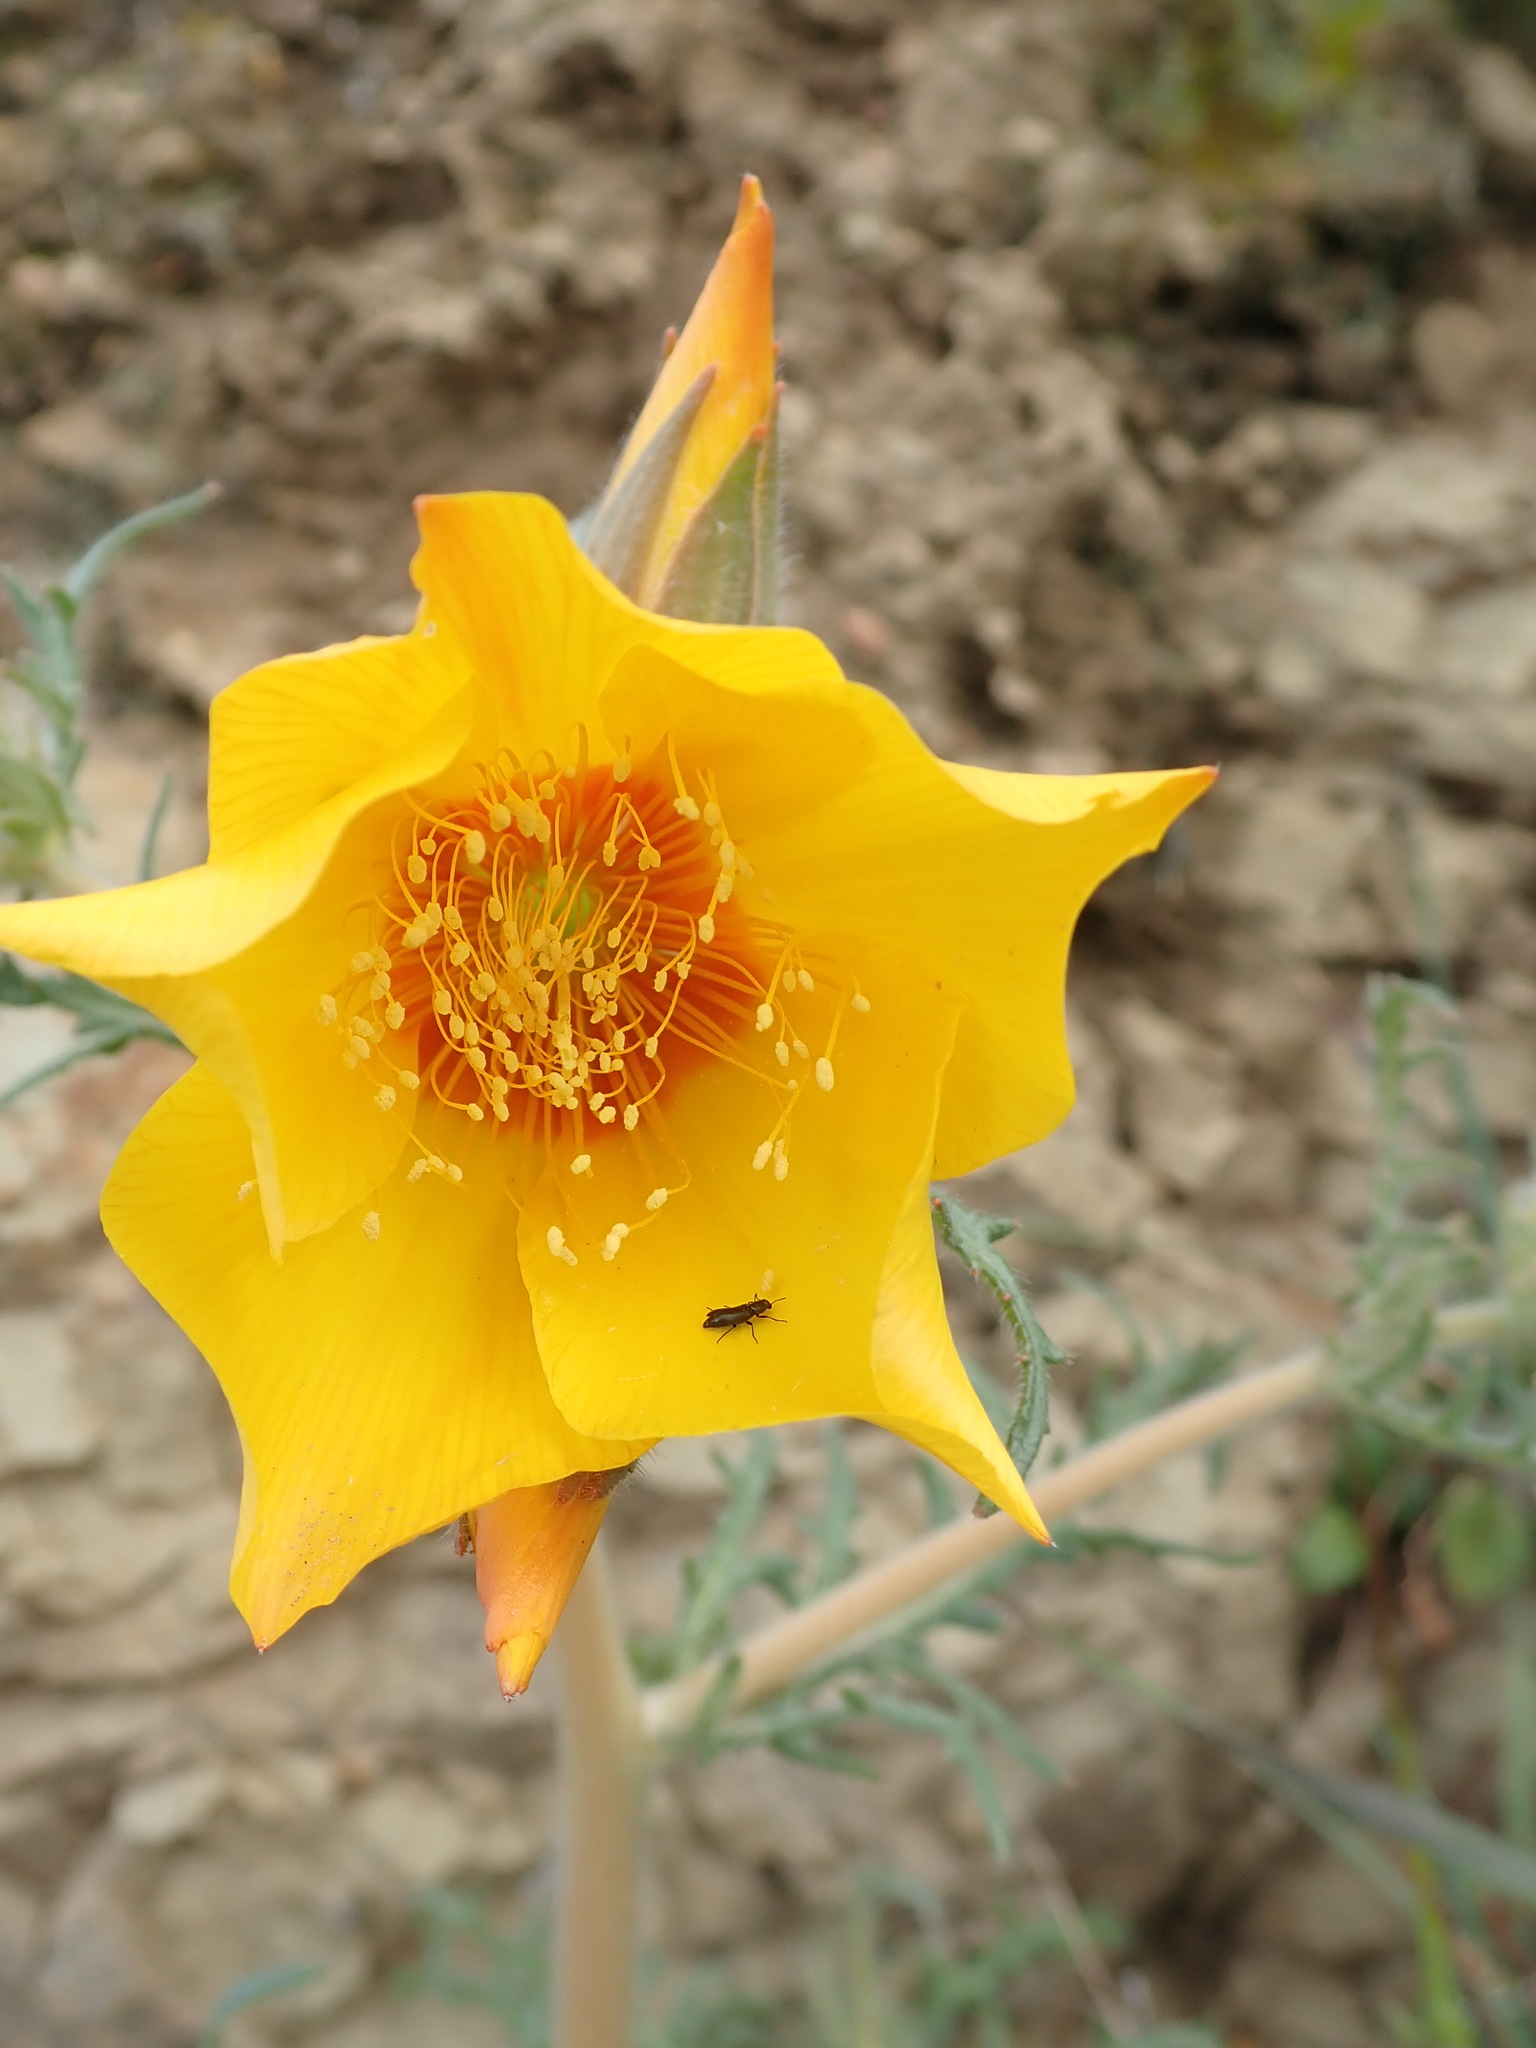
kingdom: Plantae
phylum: Tracheophyta
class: Magnoliopsida
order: Cornales
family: Loasaceae
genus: Mentzelia
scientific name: Mentzelia lindleyi
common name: Golden bartonia
